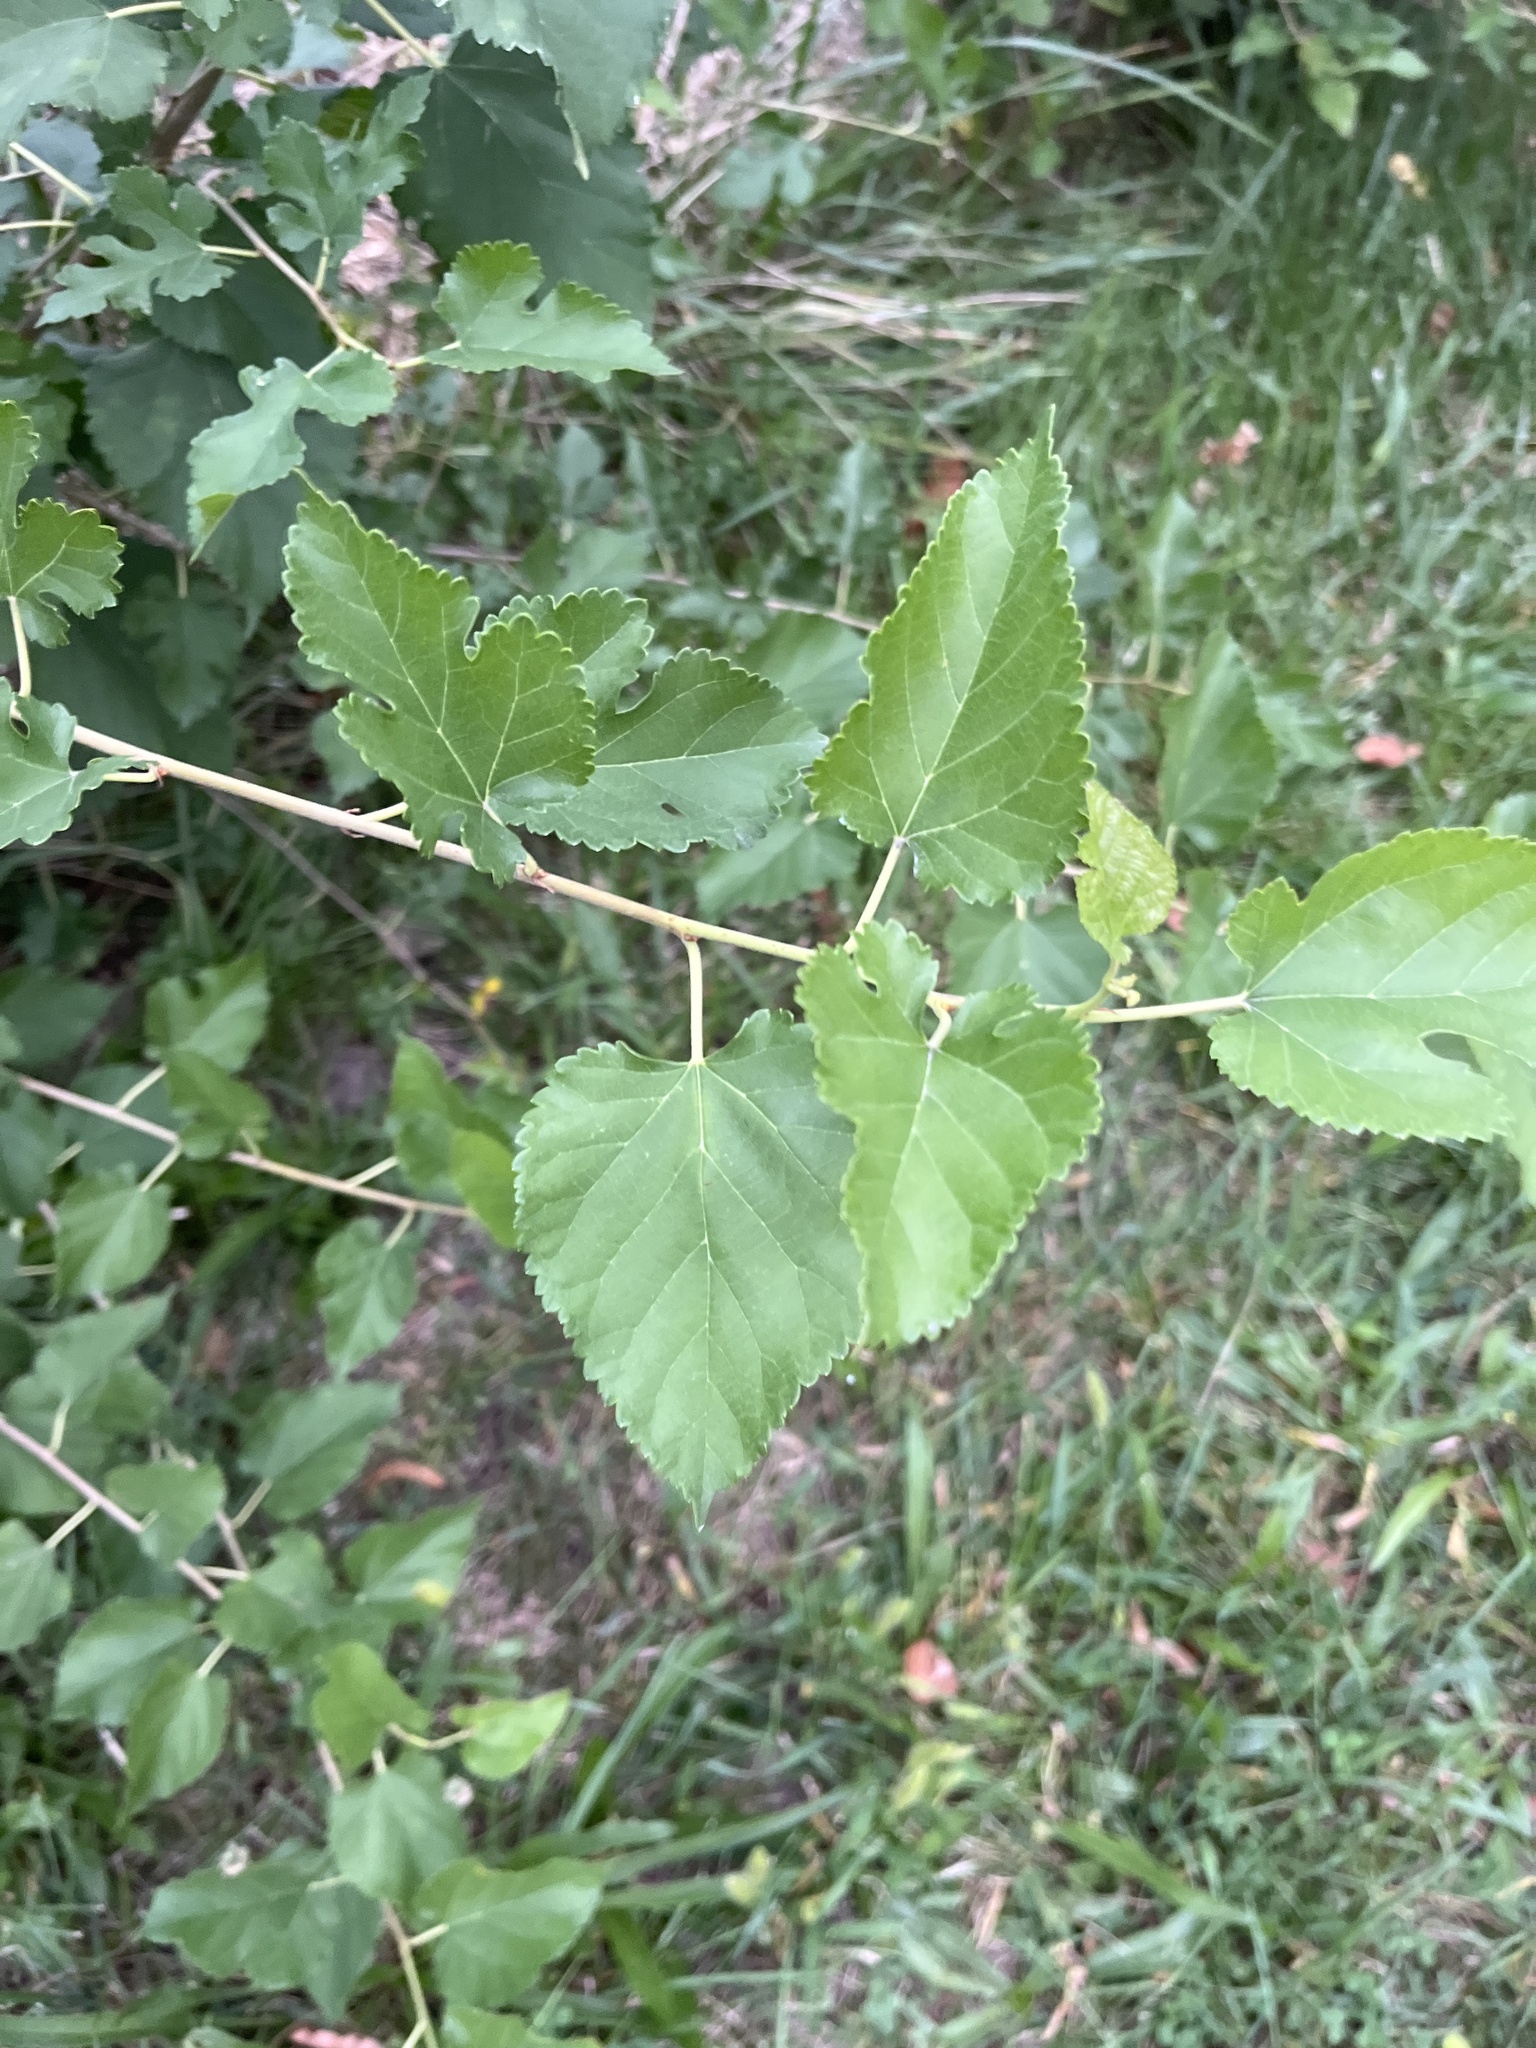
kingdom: Plantae
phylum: Tracheophyta
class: Magnoliopsida
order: Rosales
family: Moraceae
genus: Morus
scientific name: Morus alba
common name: White mulberry
